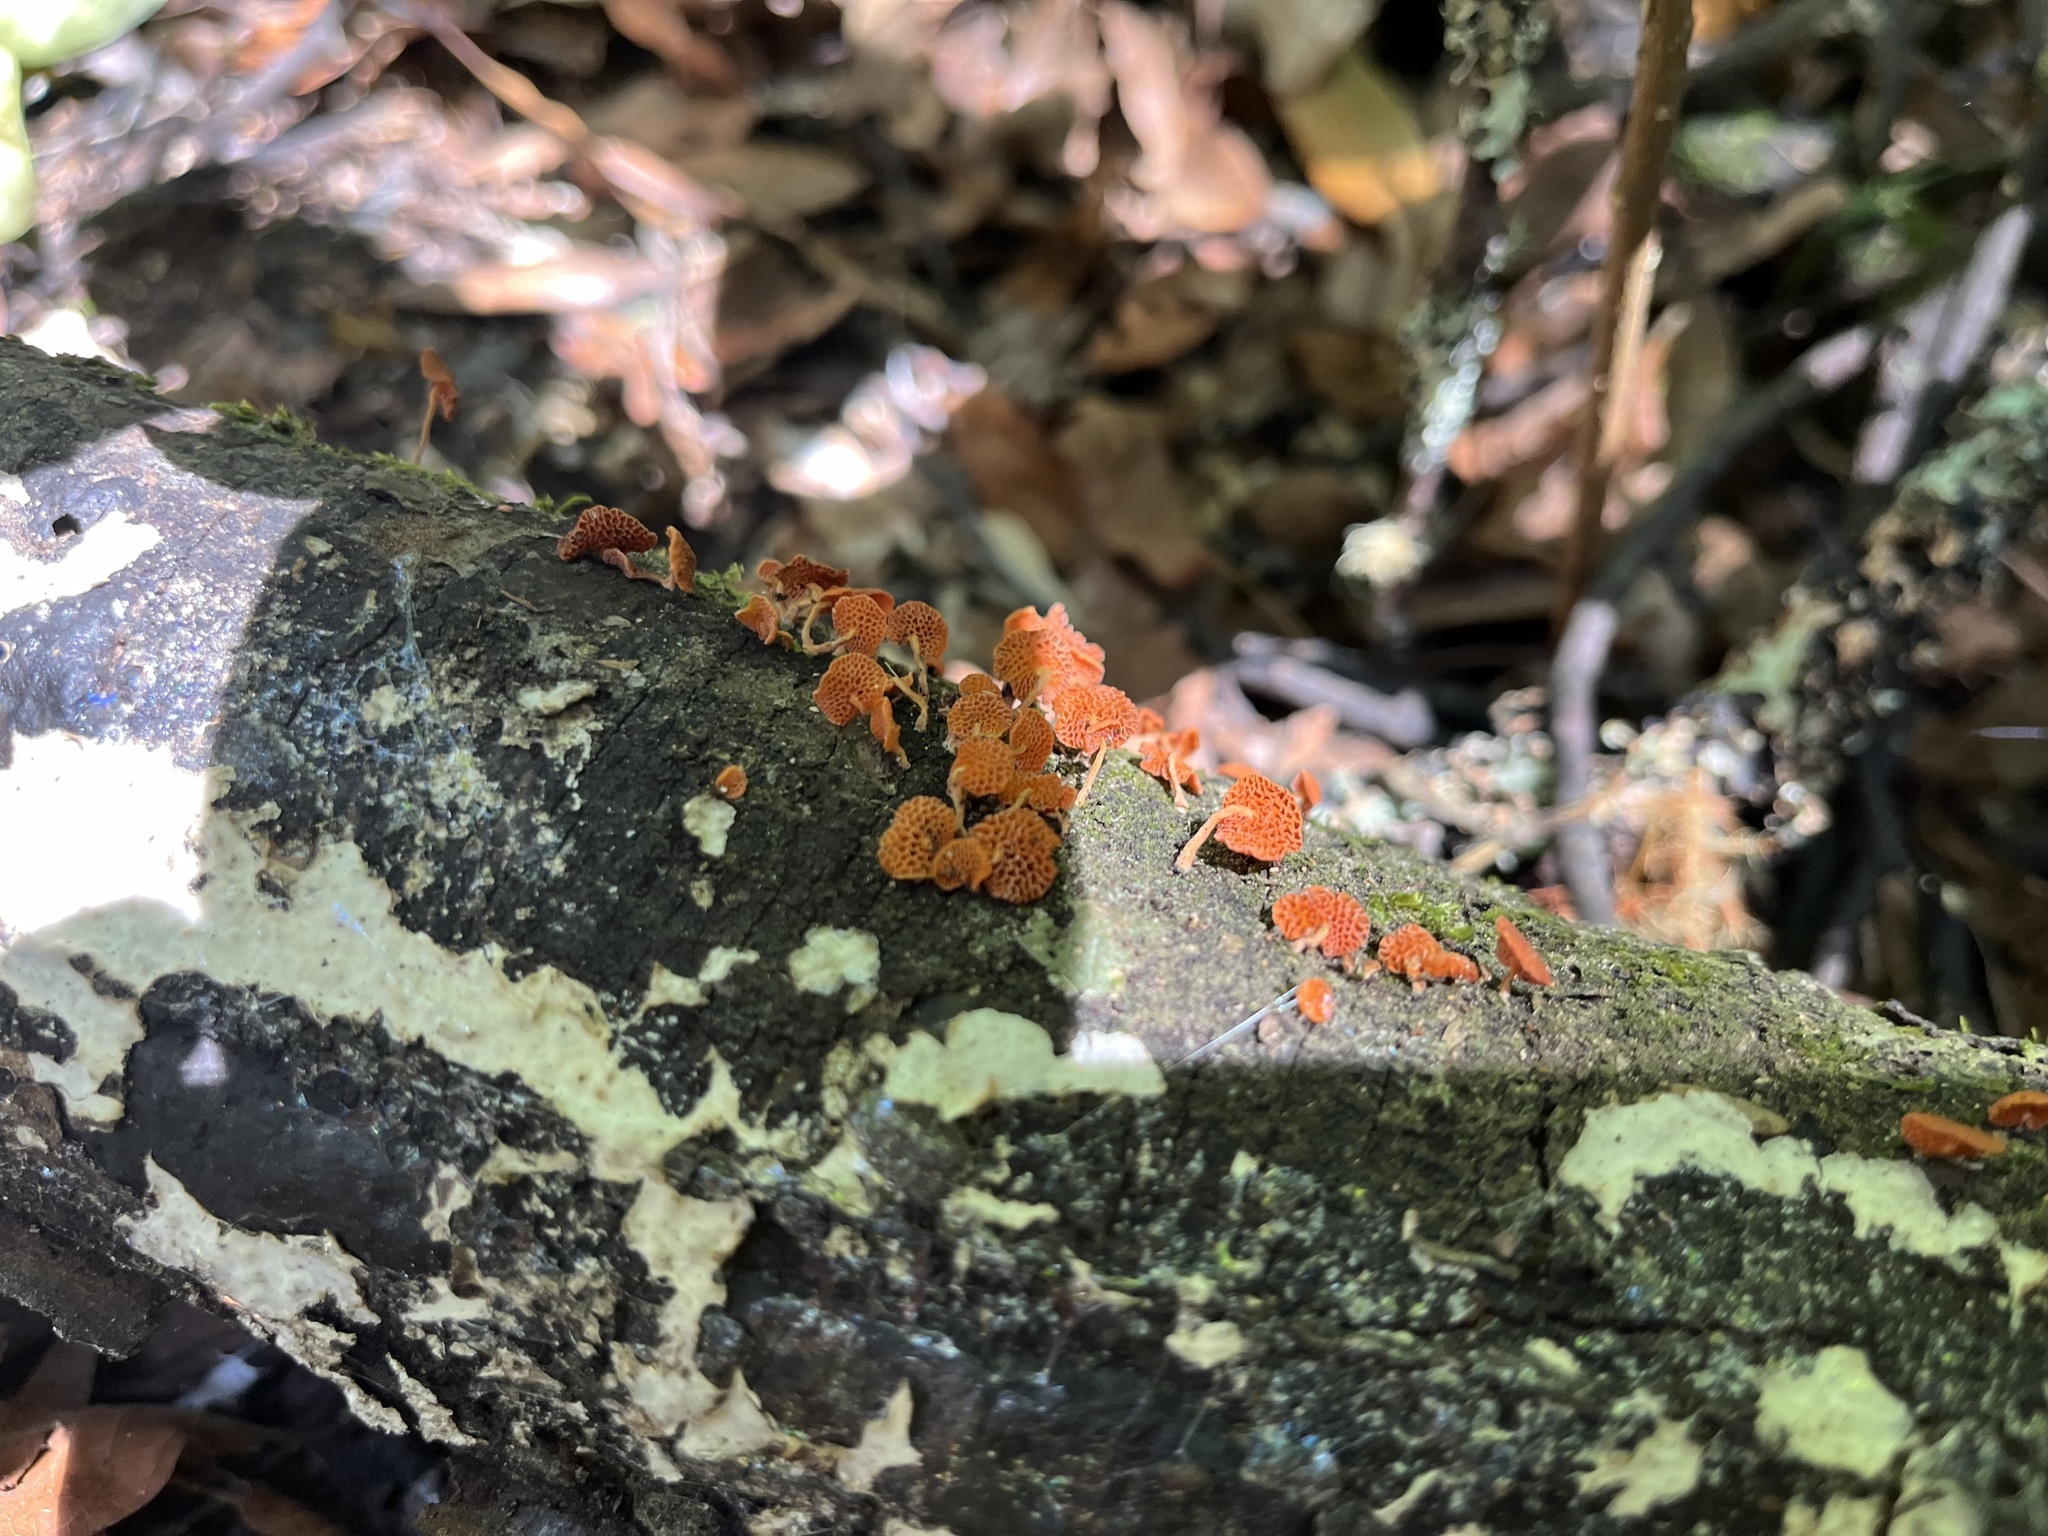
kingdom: Fungi
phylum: Basidiomycota
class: Agaricomycetes
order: Agaricales
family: Mycenaceae
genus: Favolaschia
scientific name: Favolaschia claudopus
